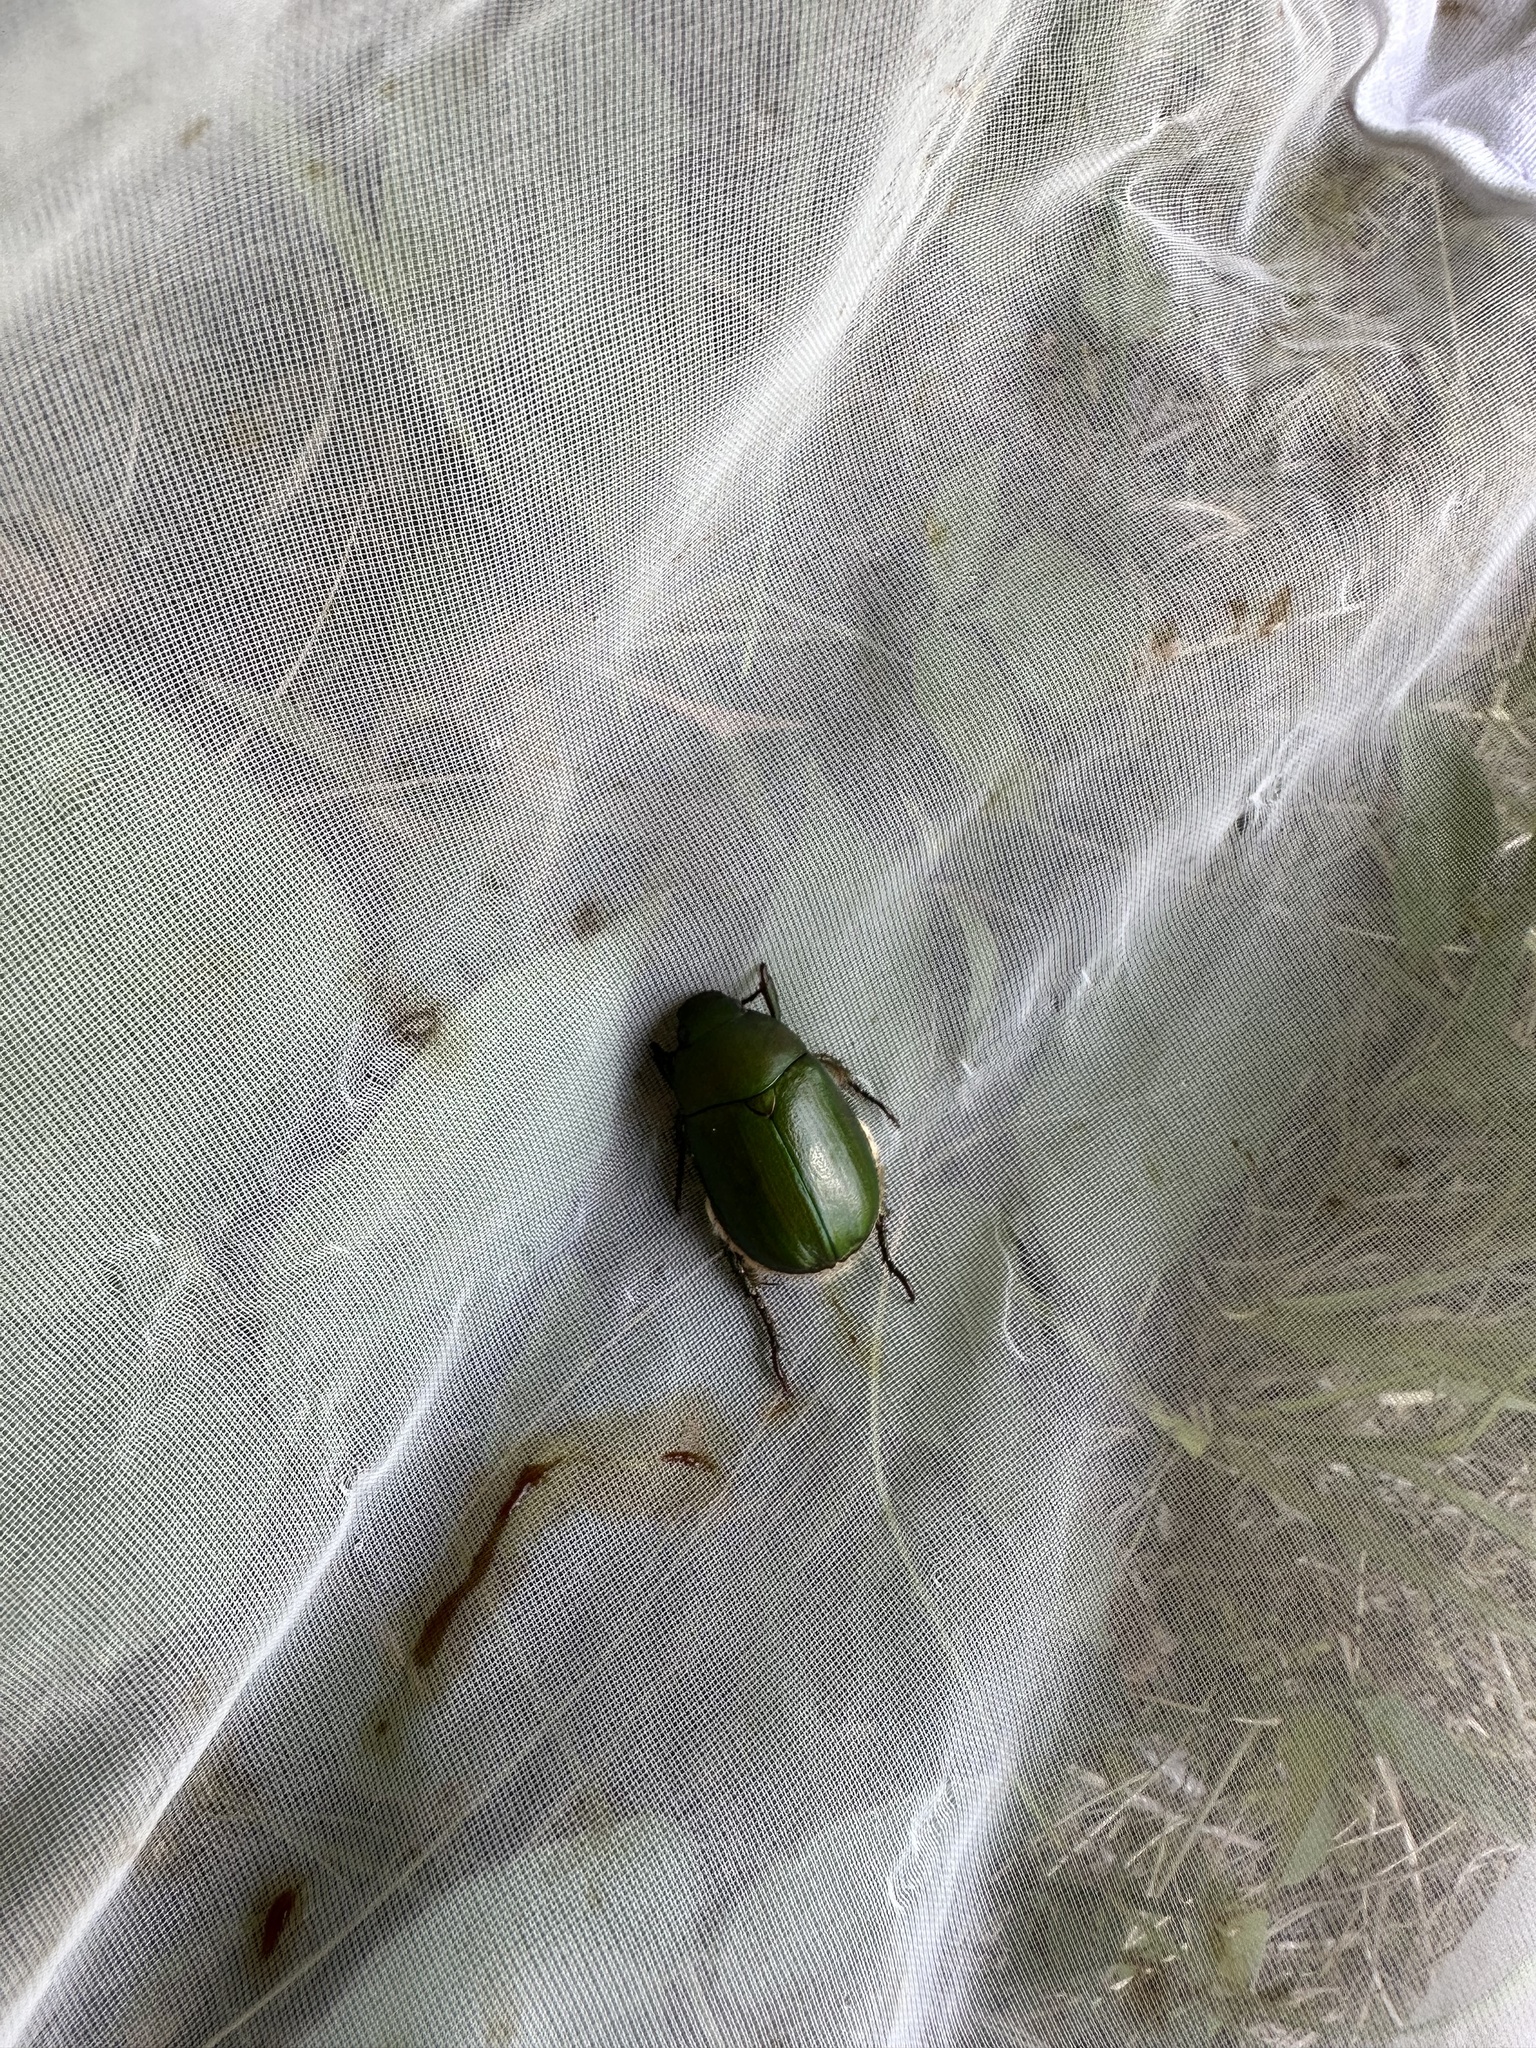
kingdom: Animalia
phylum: Arthropoda
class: Insecta
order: Coleoptera
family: Scarabaeidae
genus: Anomala
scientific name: Anomala albopilosa
